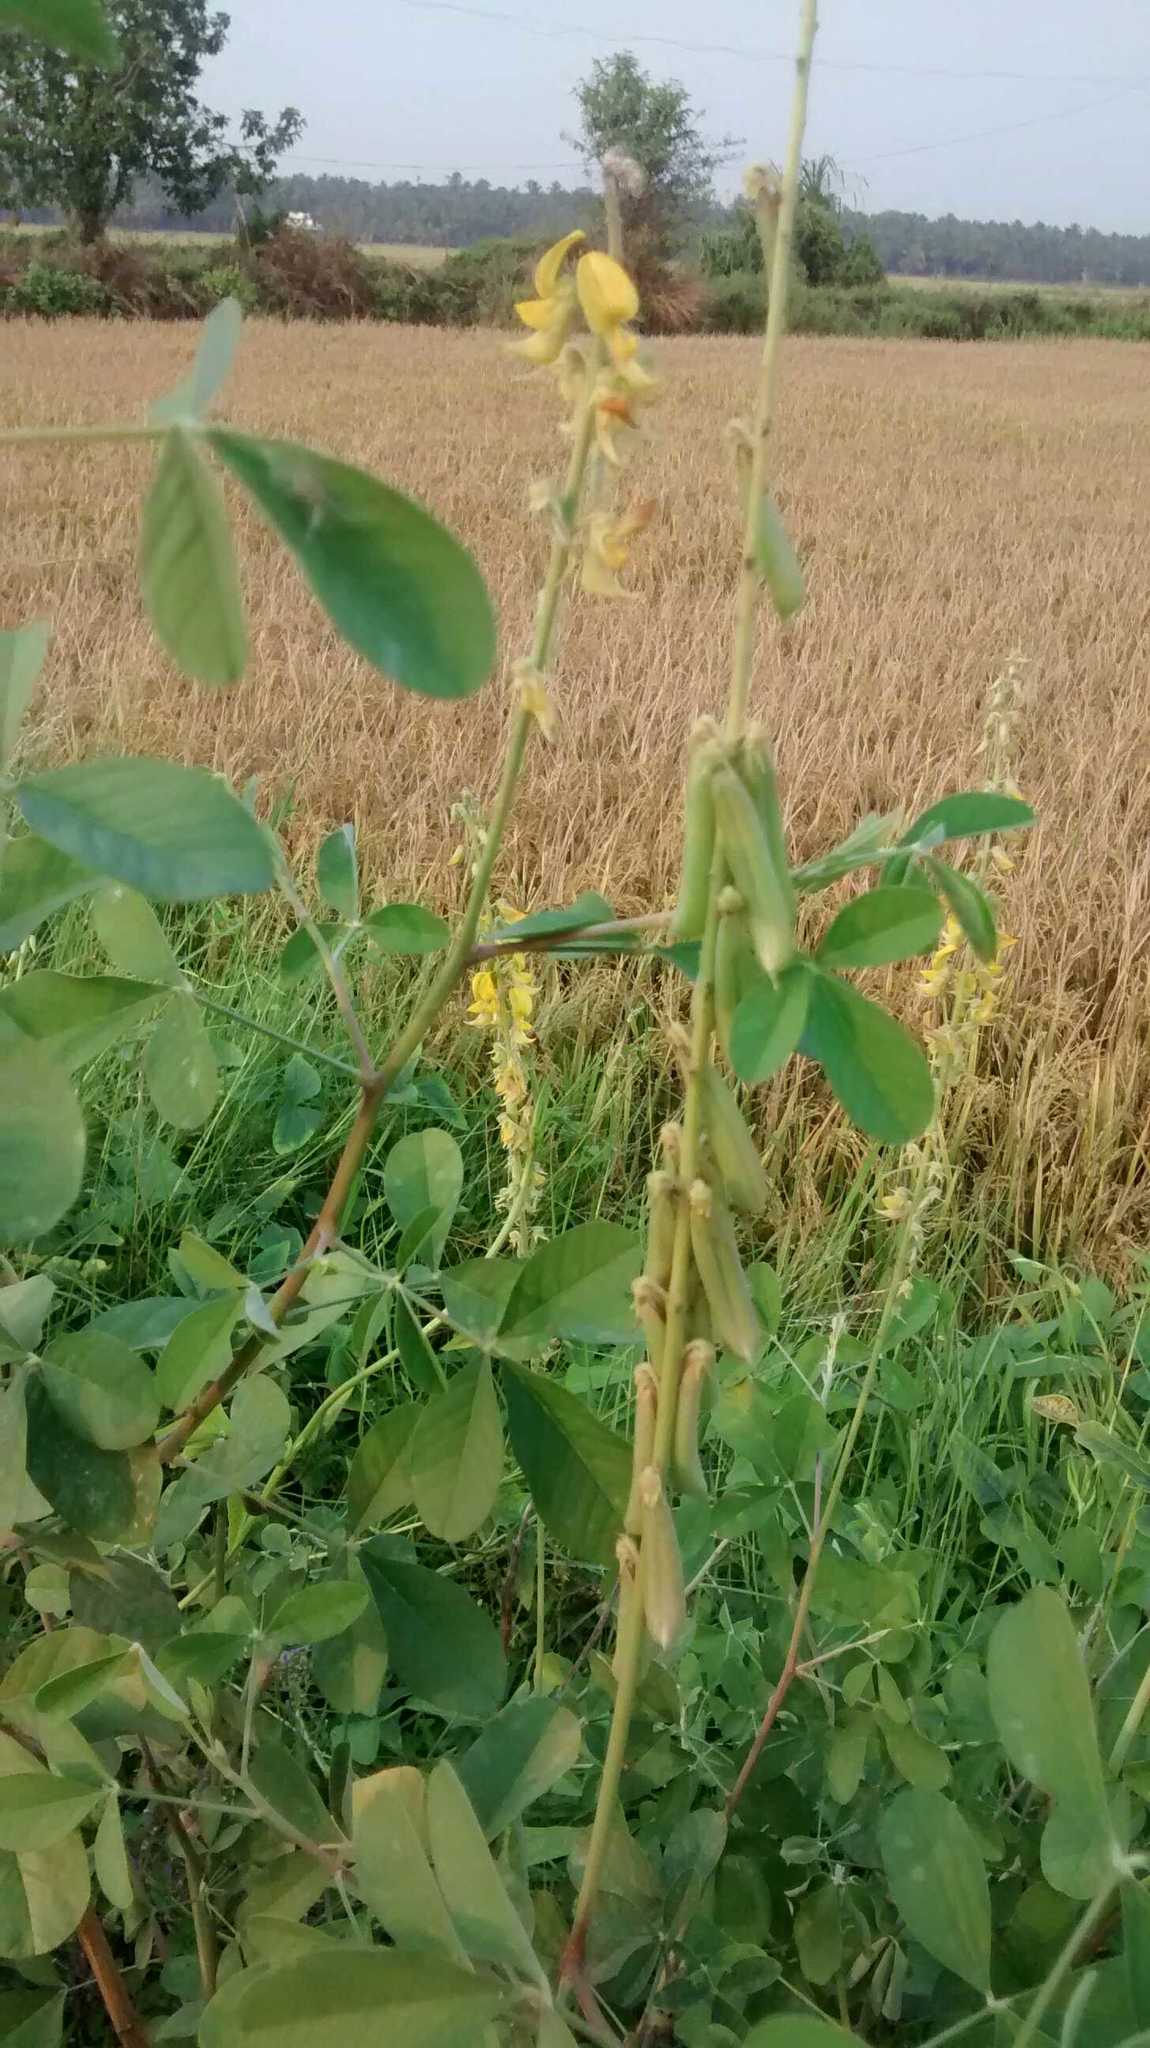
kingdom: Plantae
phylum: Tracheophyta
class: Magnoliopsida
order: Fabales
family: Fabaceae
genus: Crotalaria
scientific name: Crotalaria pallida
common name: Smooth rattlebox
